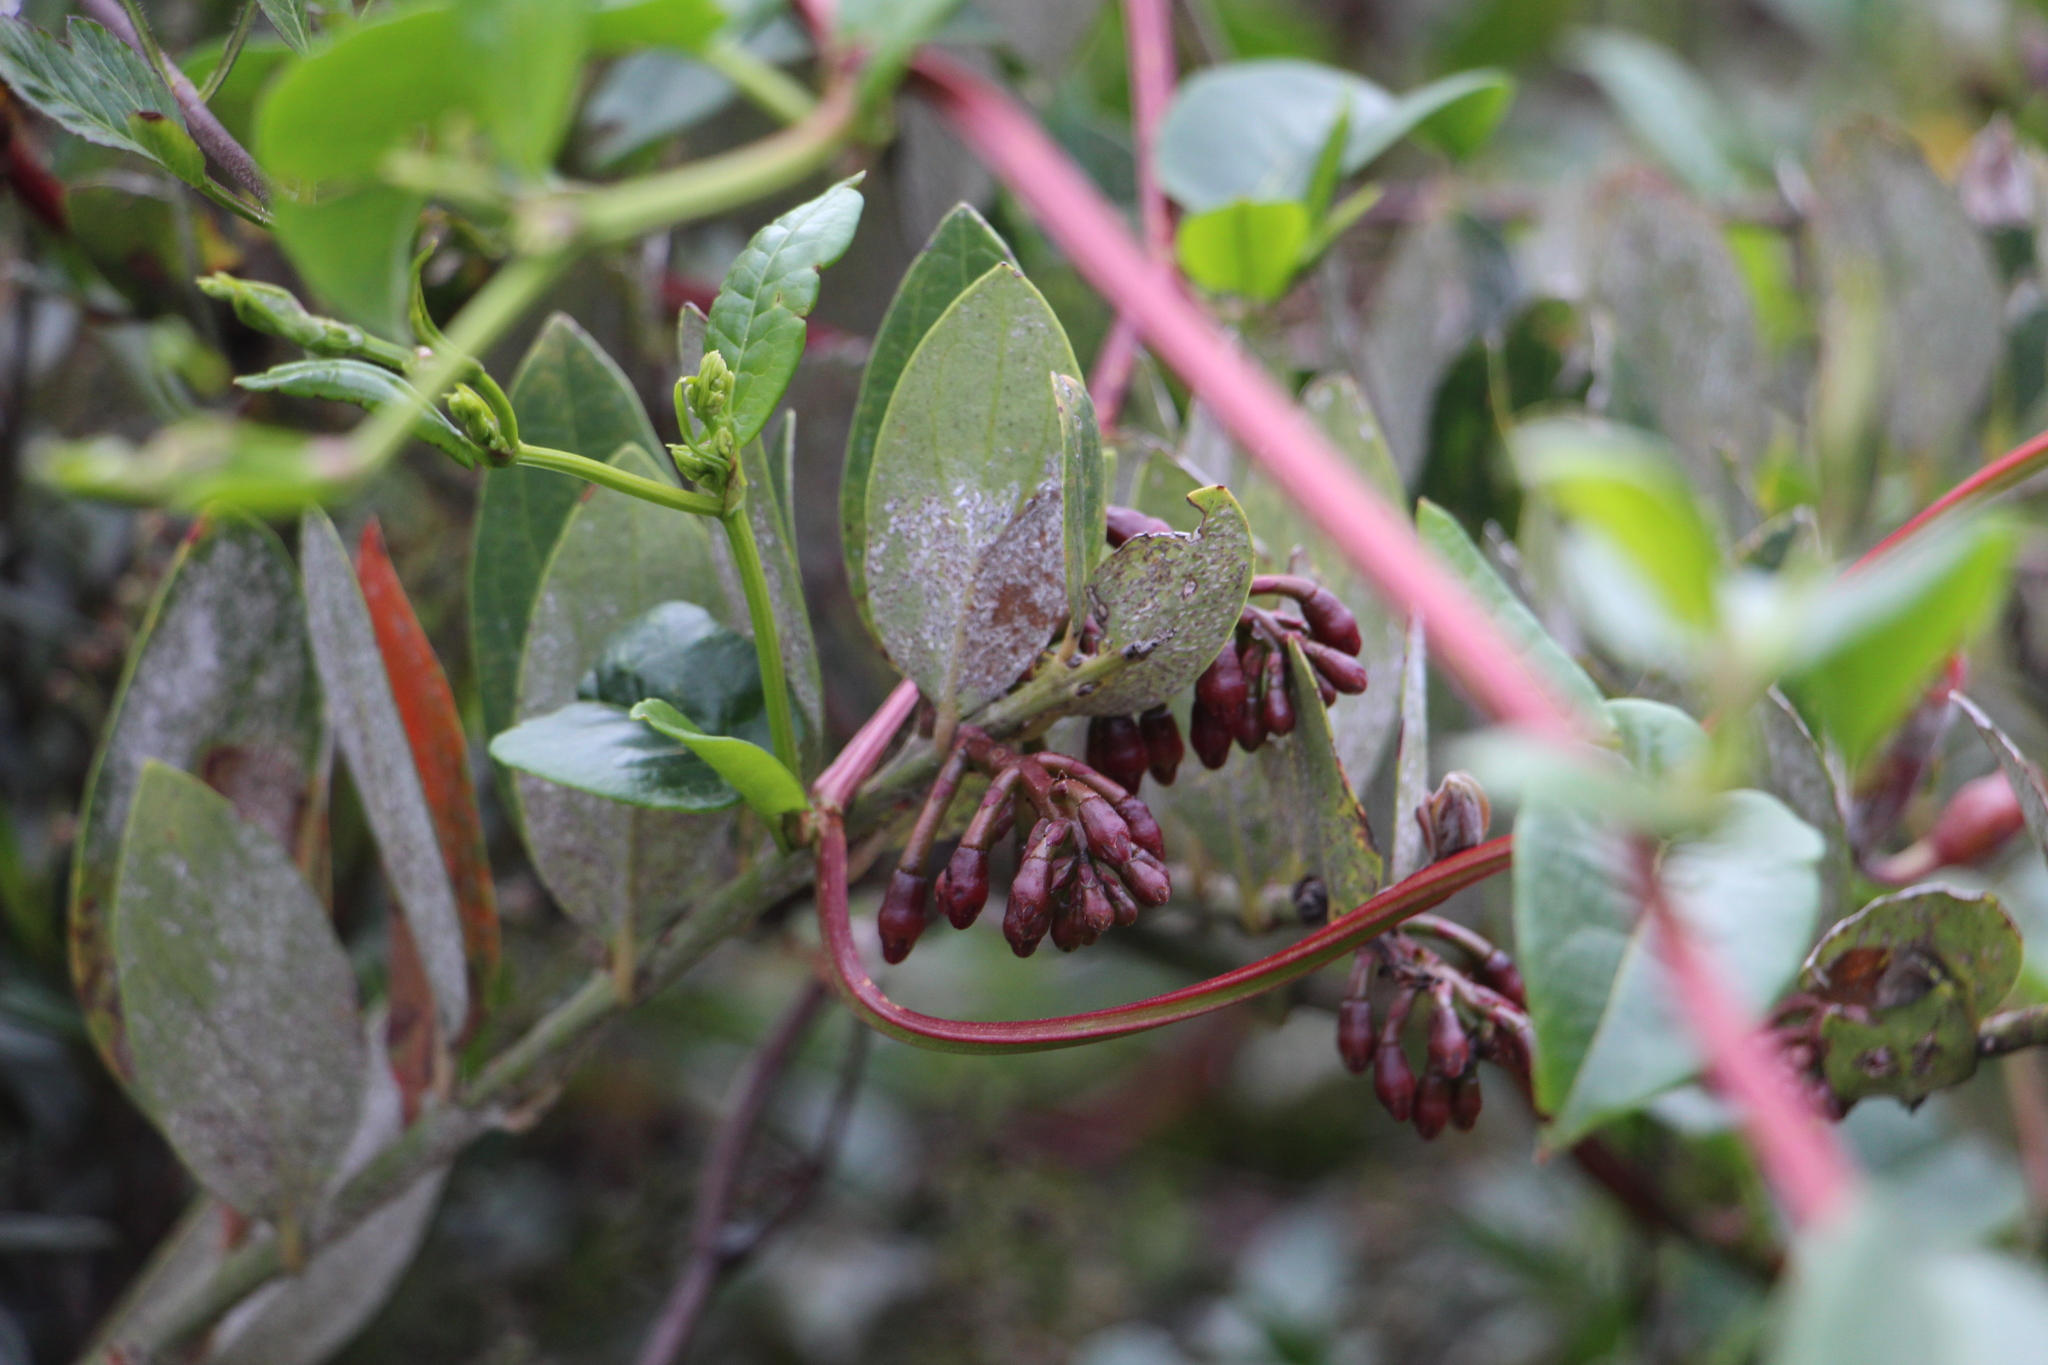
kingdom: Plantae
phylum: Tracheophyta
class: Magnoliopsida
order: Ericales
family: Ericaceae
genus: Macleania
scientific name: Macleania rupestris
